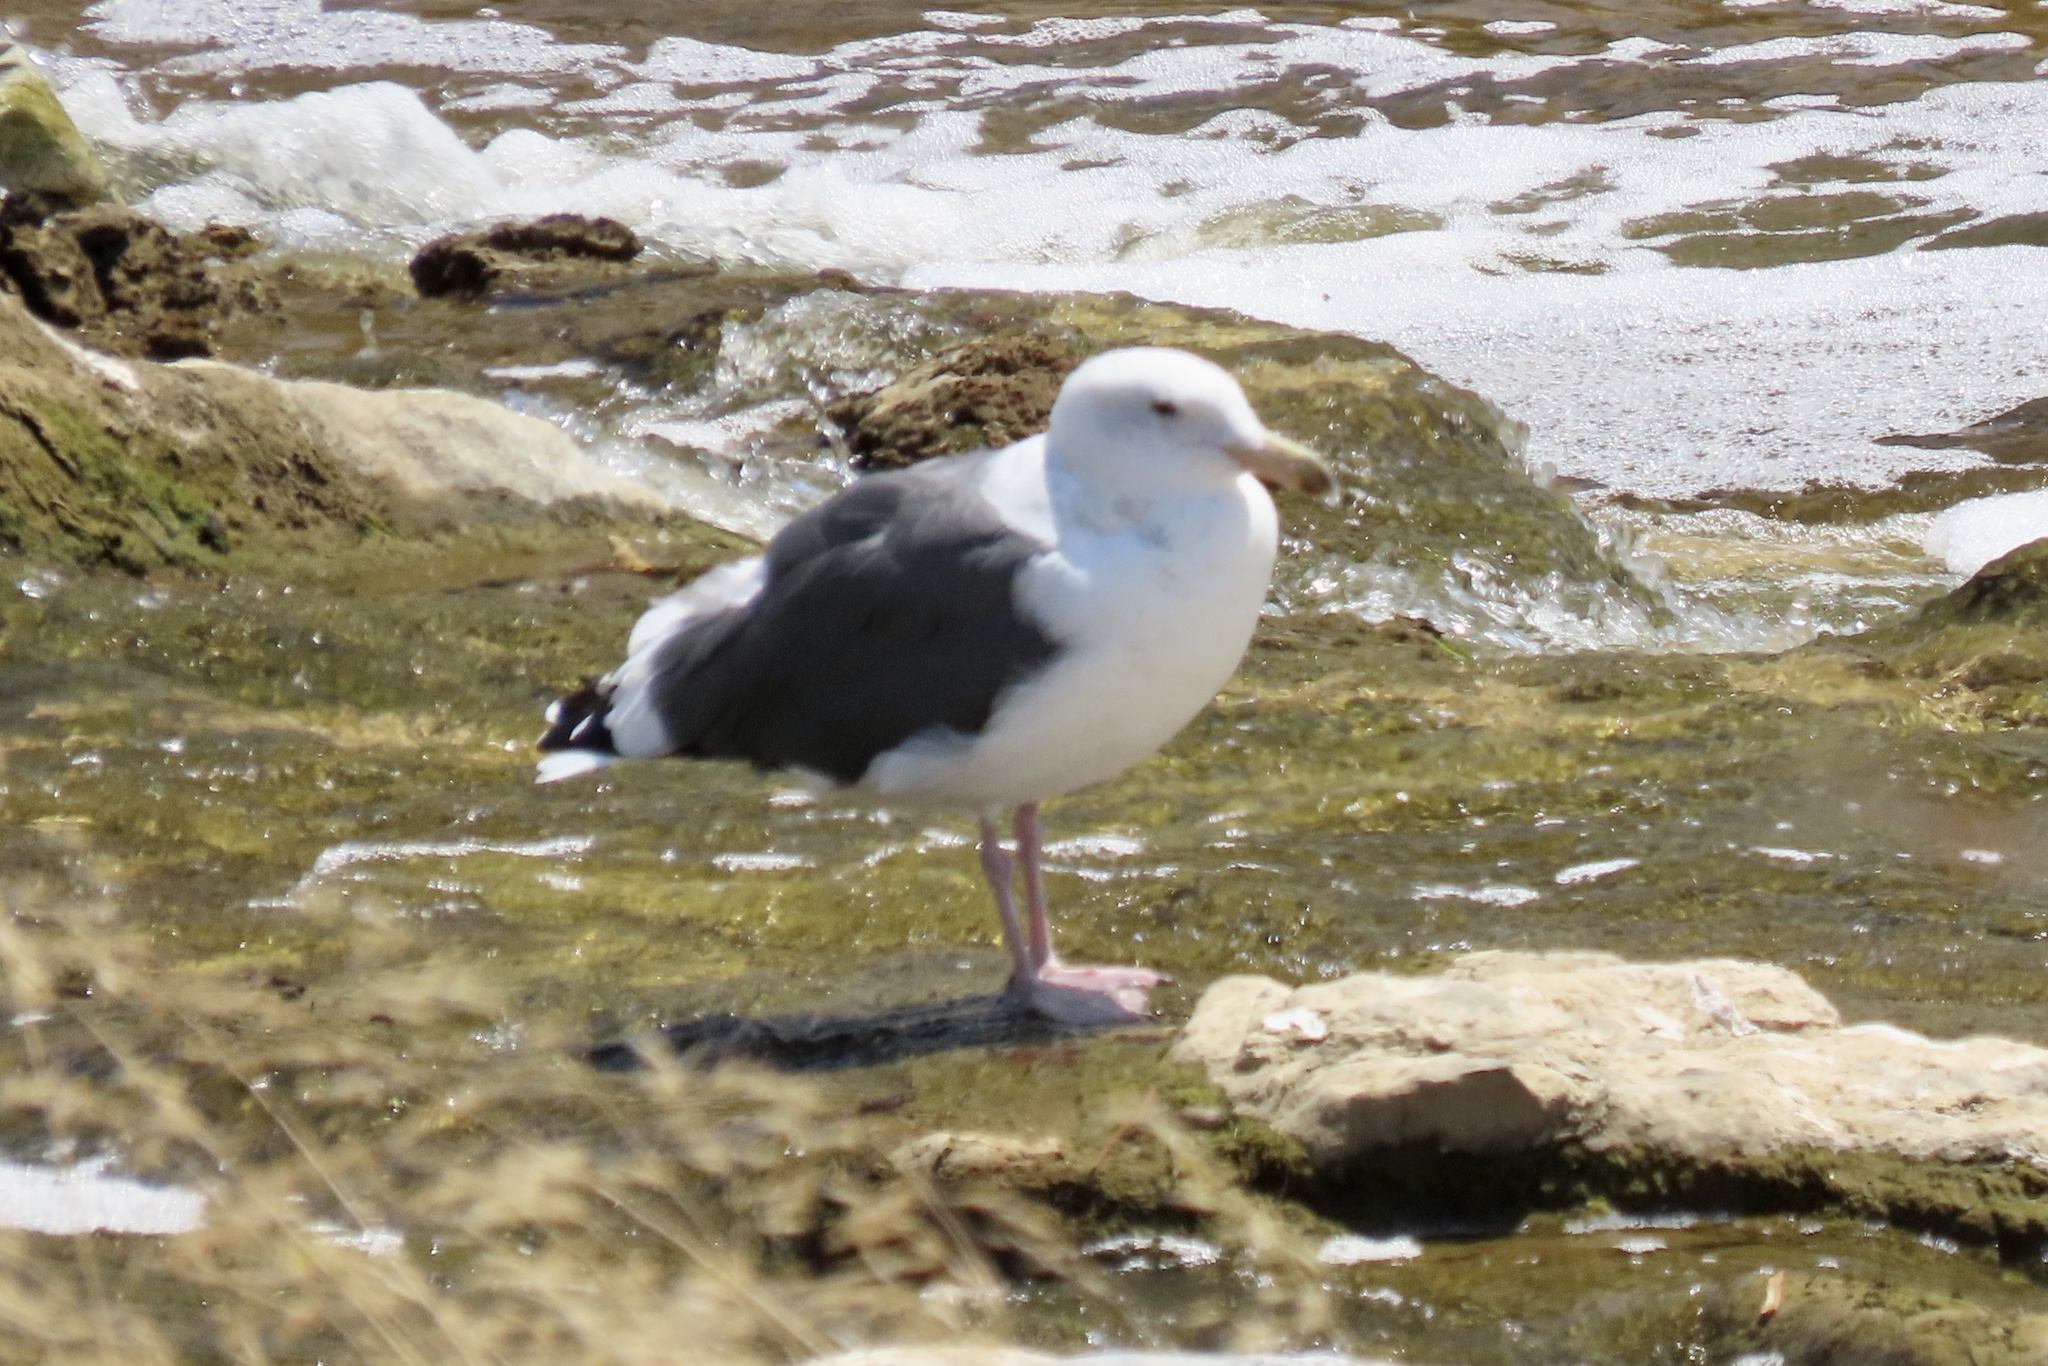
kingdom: Animalia
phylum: Chordata
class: Aves
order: Charadriiformes
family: Laridae
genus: Larus
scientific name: Larus occidentalis
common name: Western gull
